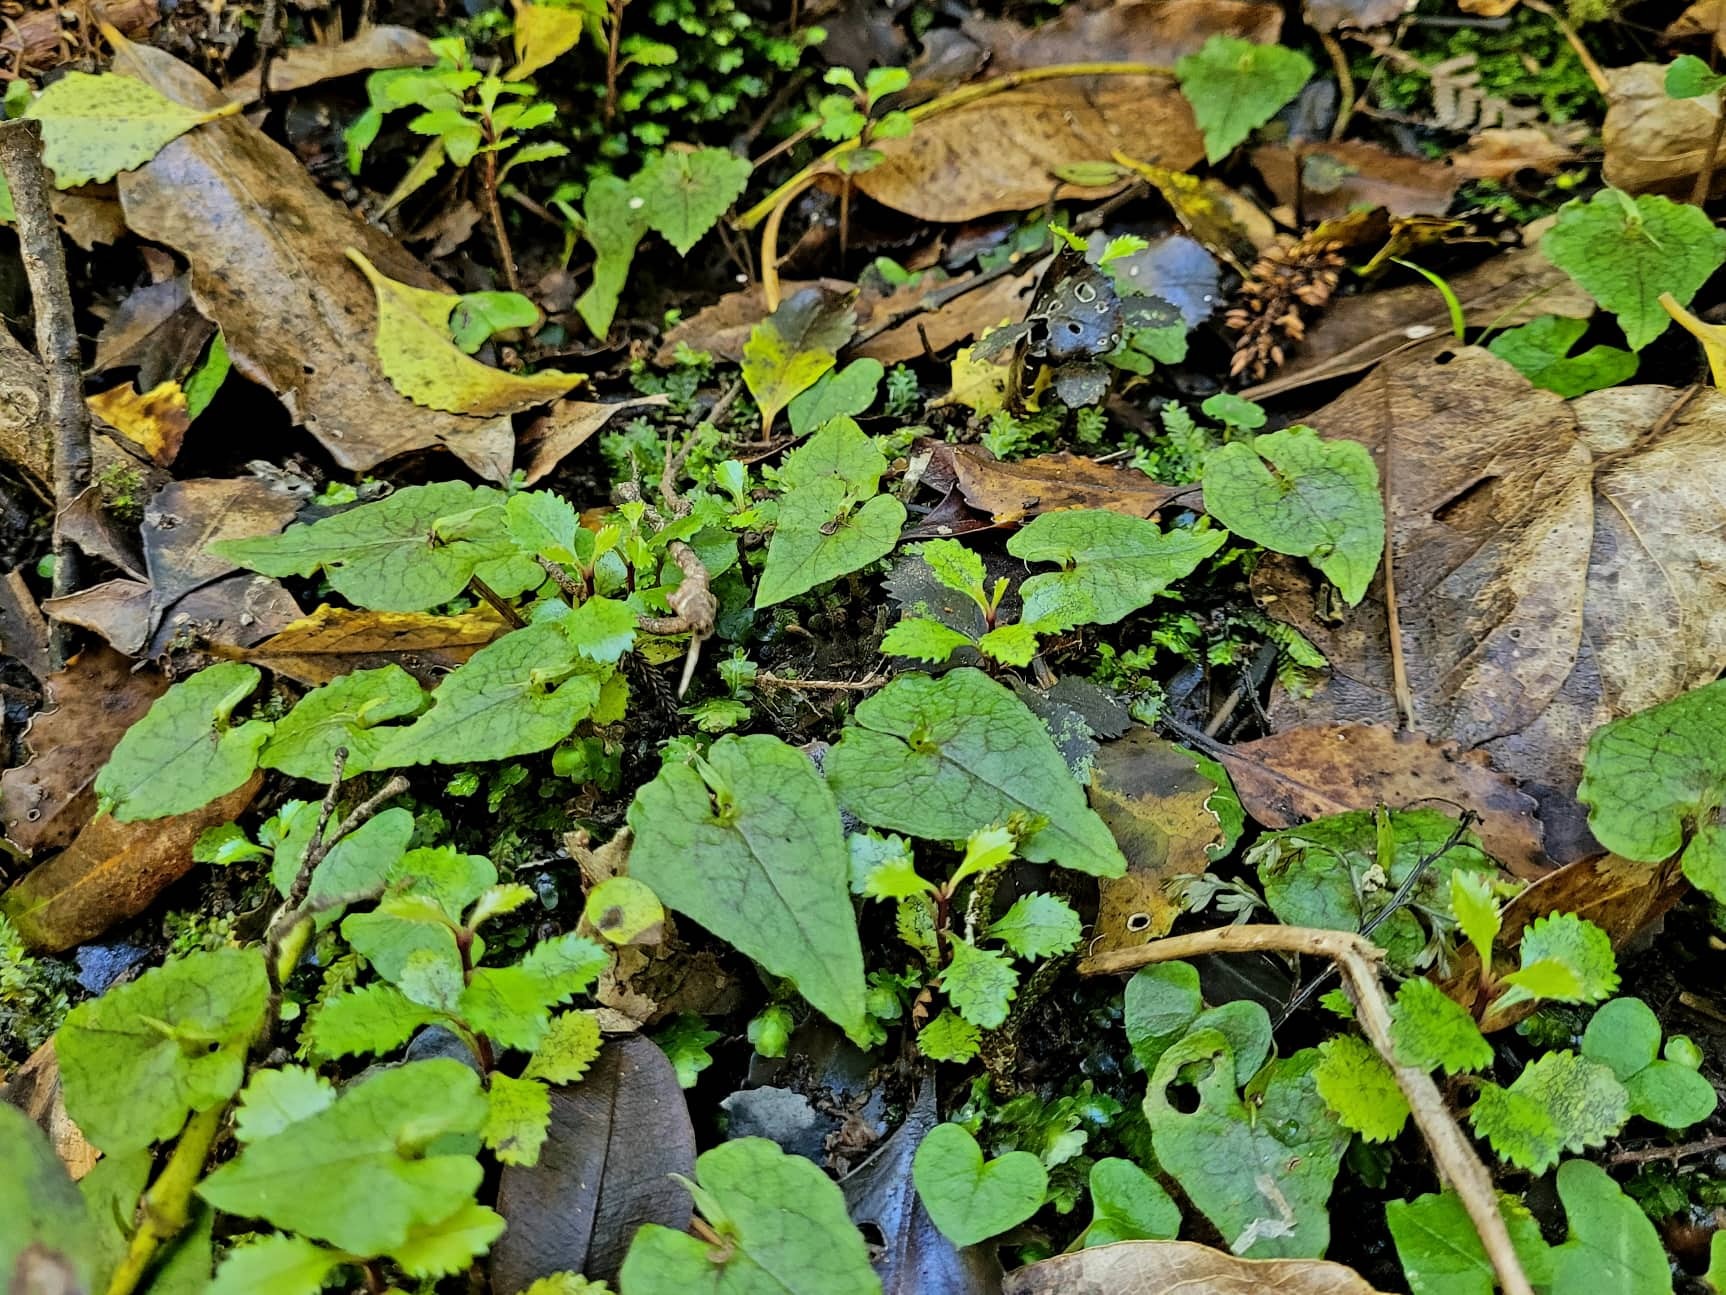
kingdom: Plantae
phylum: Tracheophyta
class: Liliopsida
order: Asparagales
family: Orchidaceae
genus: Corybas
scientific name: Corybas acuminatus
